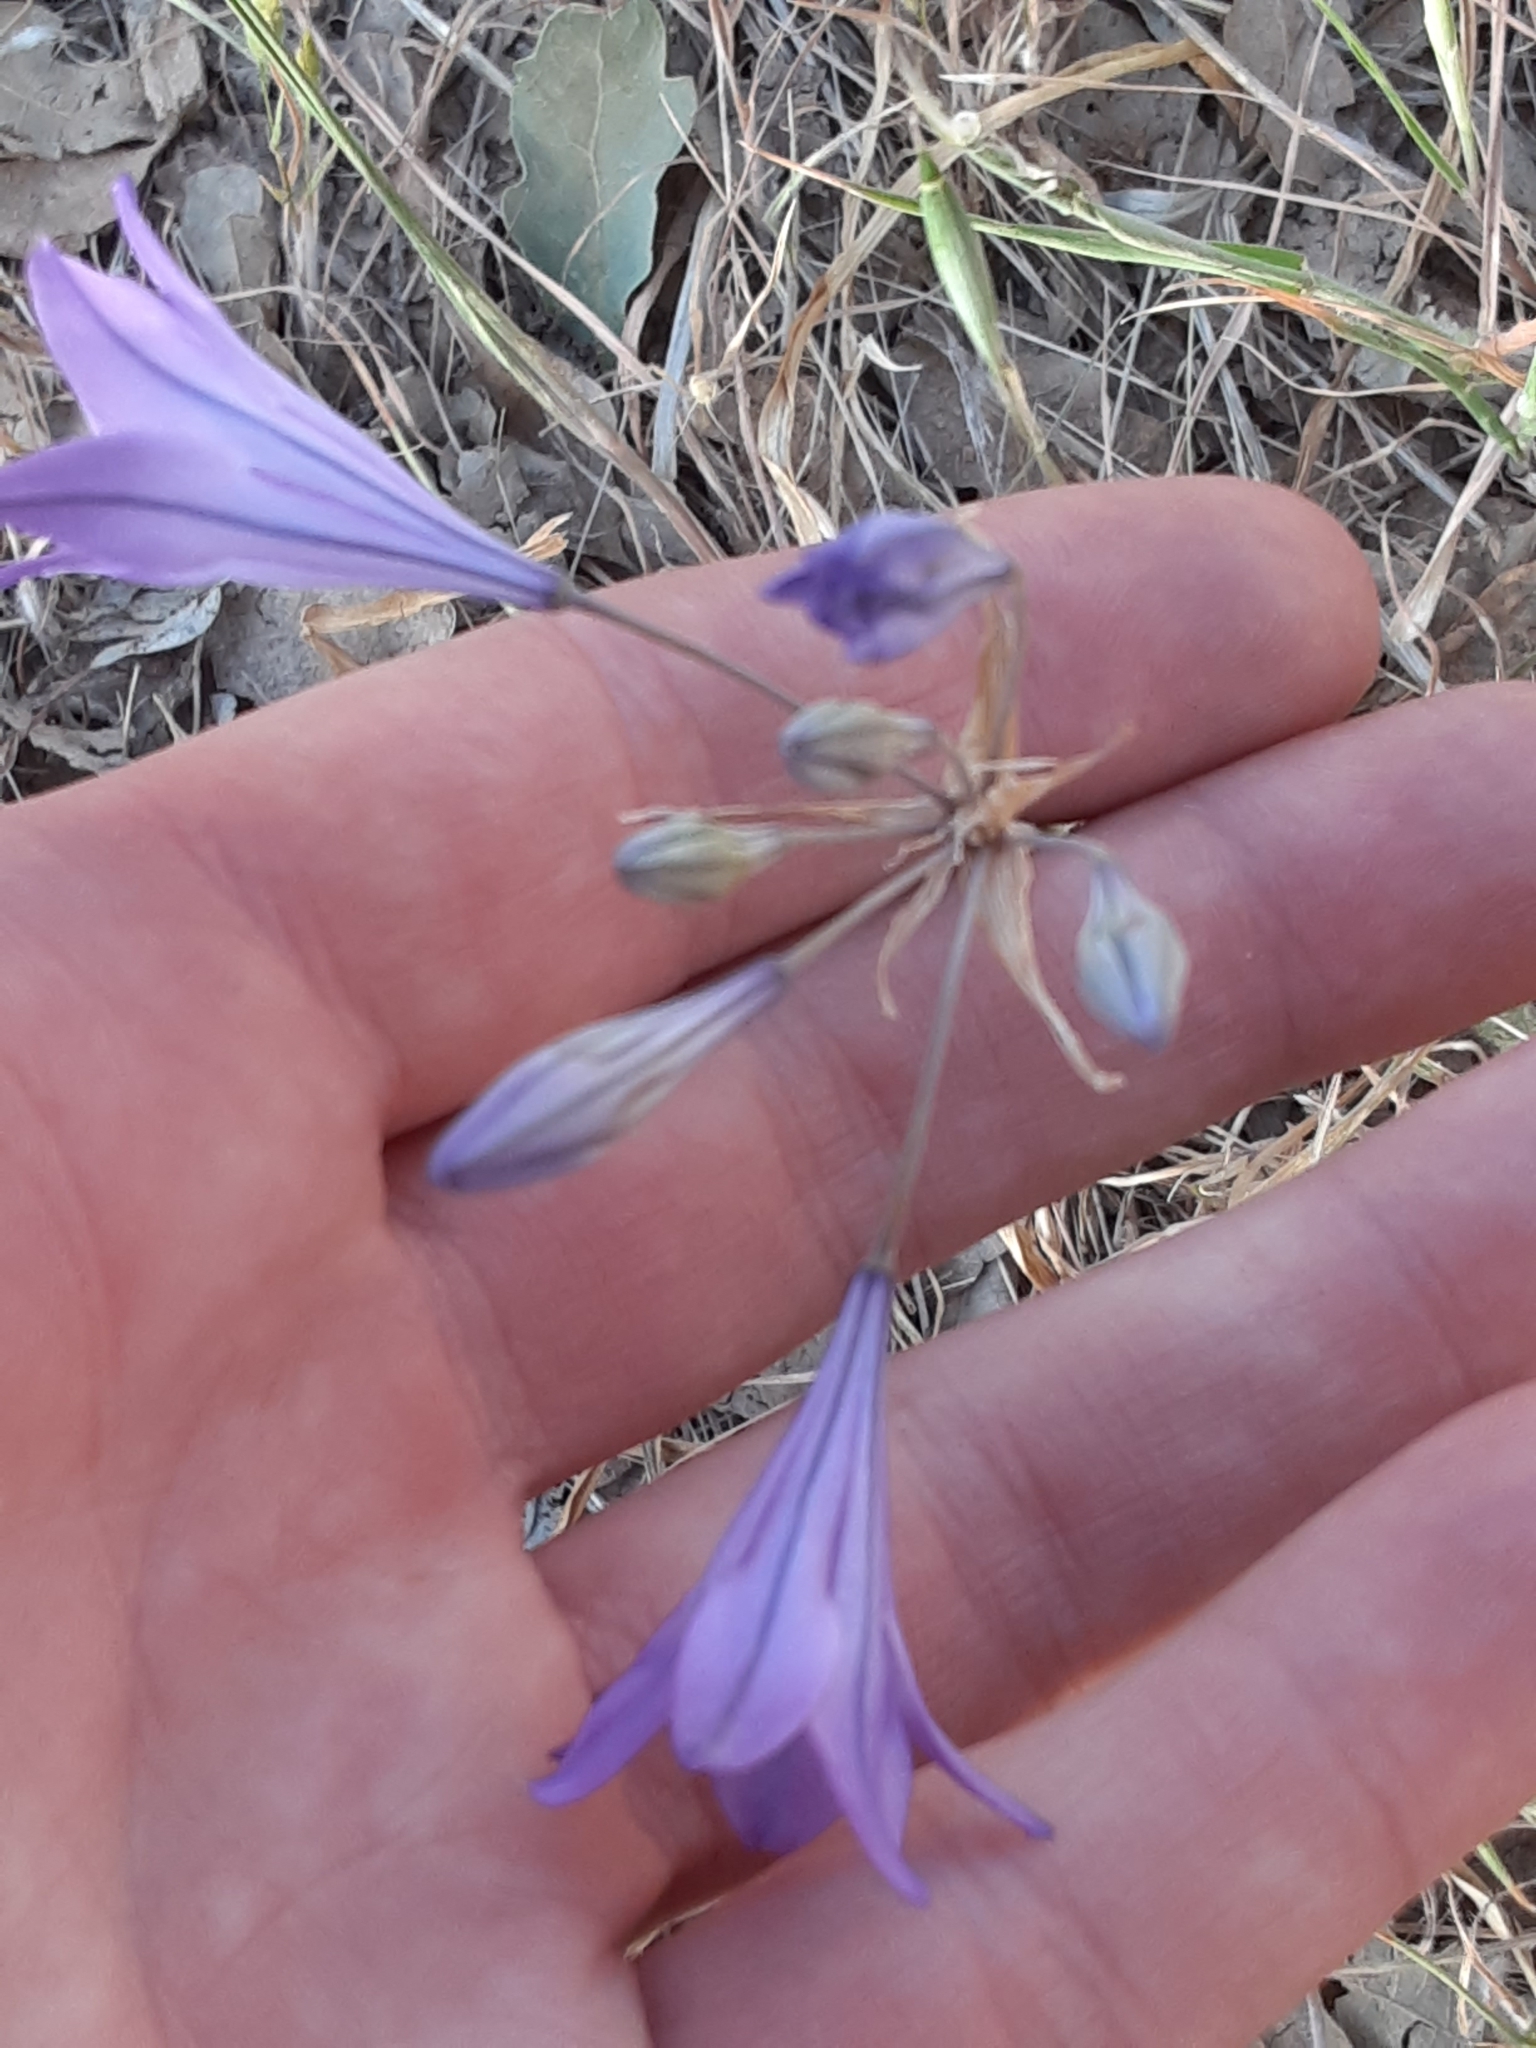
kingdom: Plantae
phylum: Tracheophyta
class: Liliopsida
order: Asparagales
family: Asparagaceae
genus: Triteleia
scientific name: Triteleia laxa
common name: Triplet-lily
